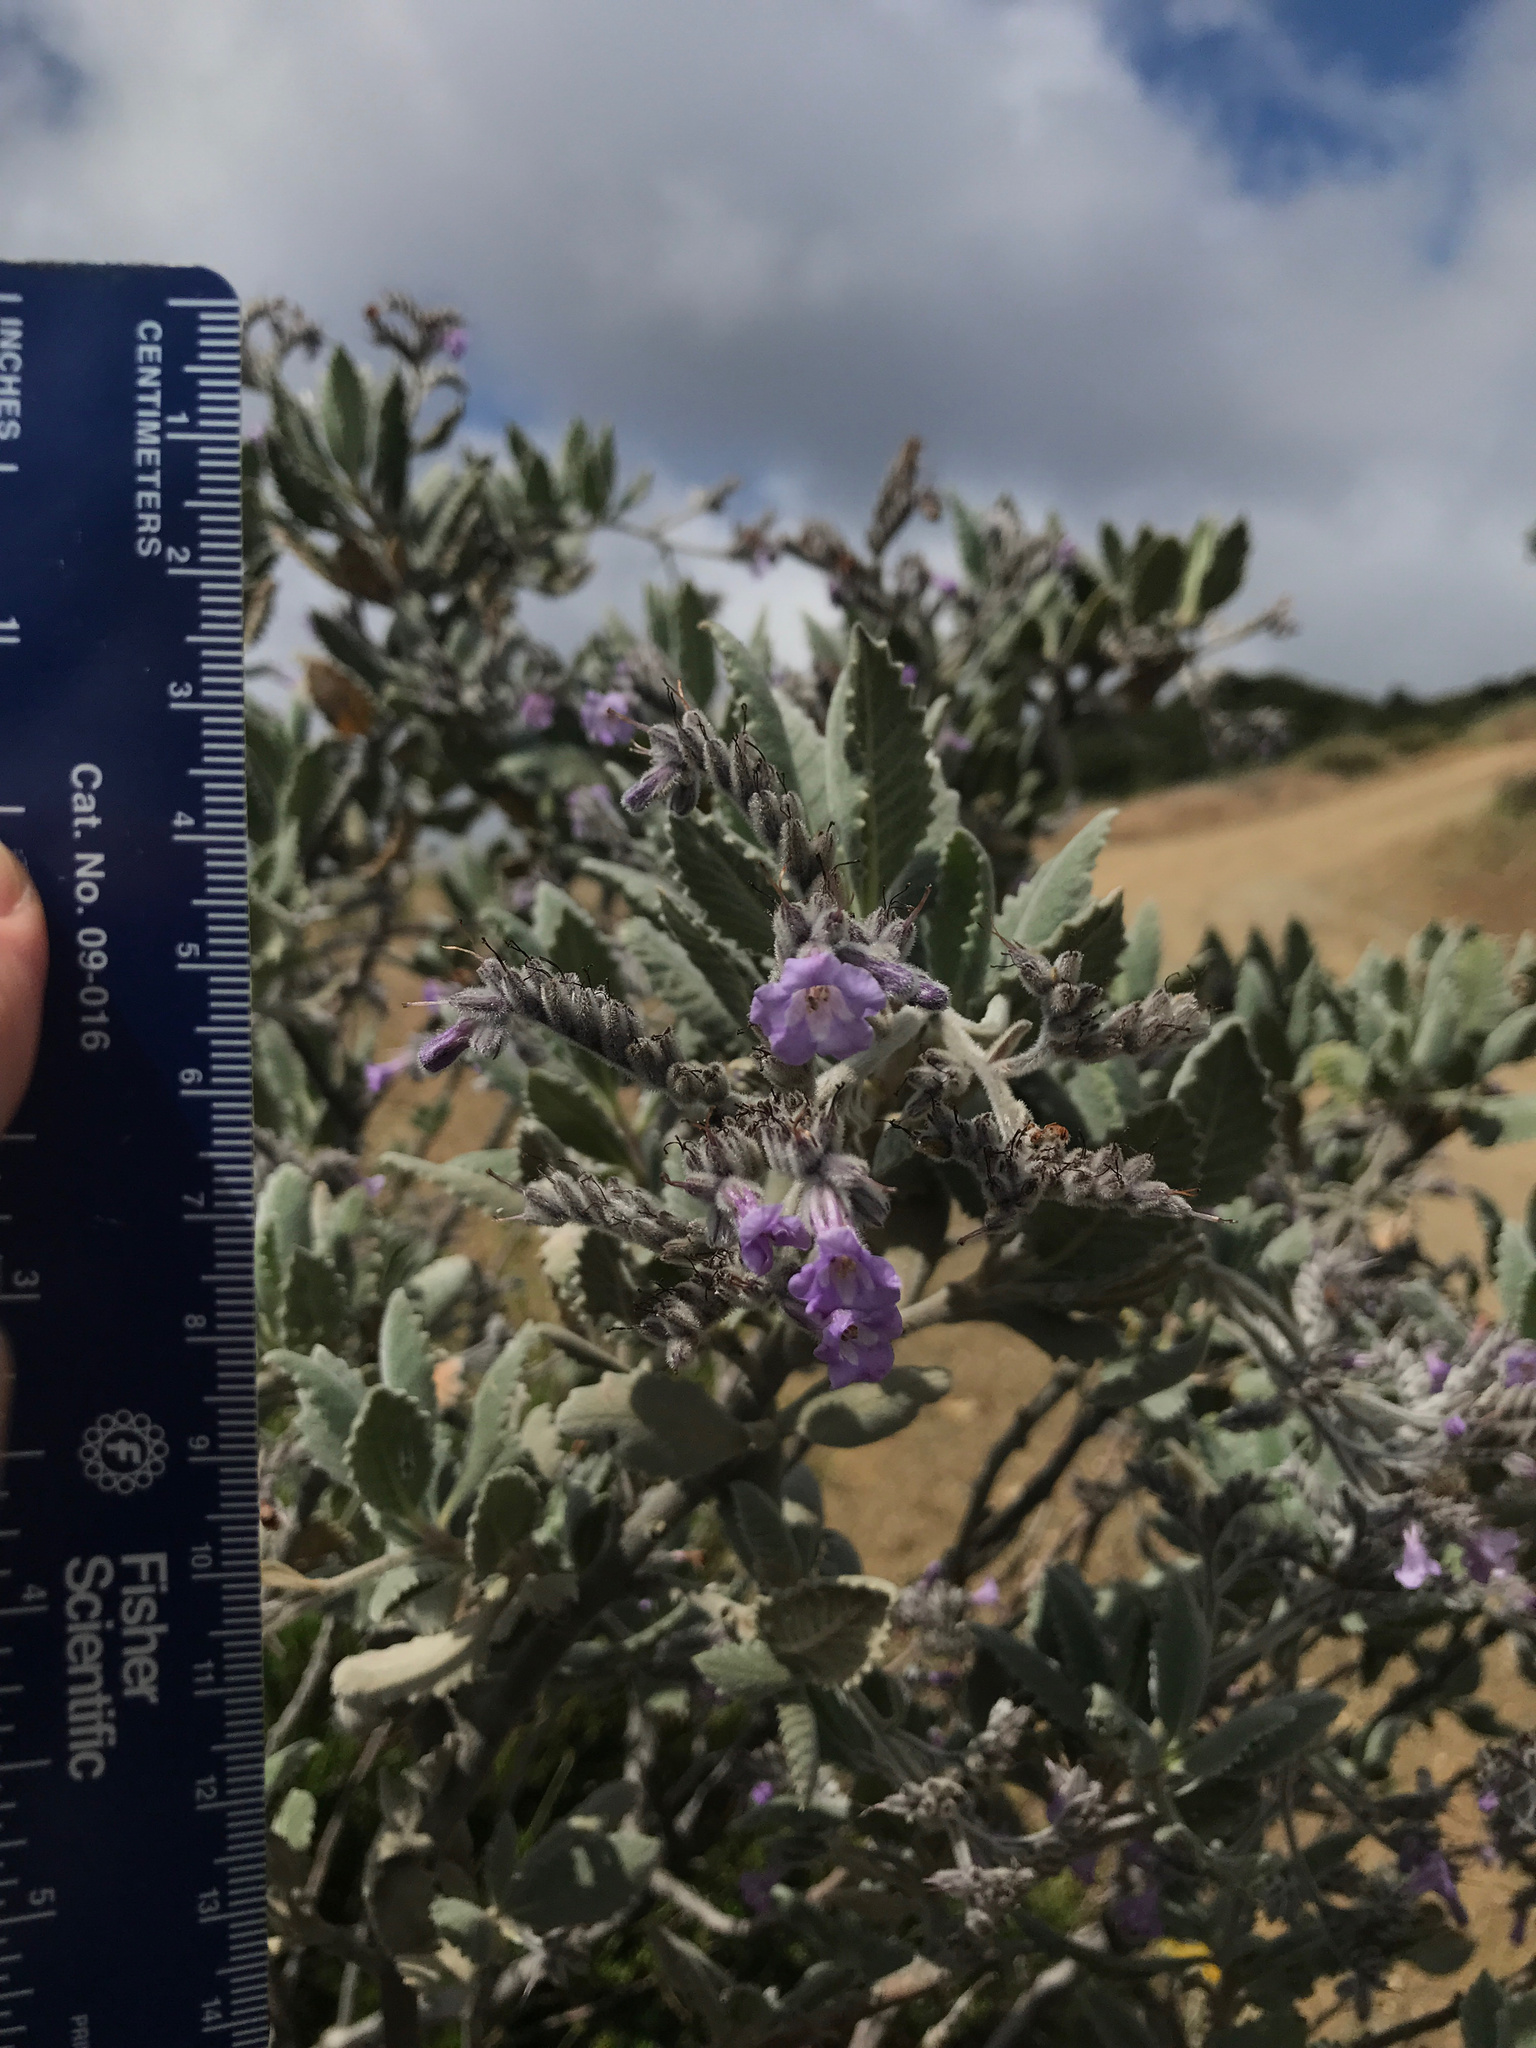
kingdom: Plantae
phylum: Tracheophyta
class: Magnoliopsida
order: Boraginales
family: Namaceae
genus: Eriodictyon
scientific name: Eriodictyon crassifolium
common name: Thick-leaf yerba-santa
